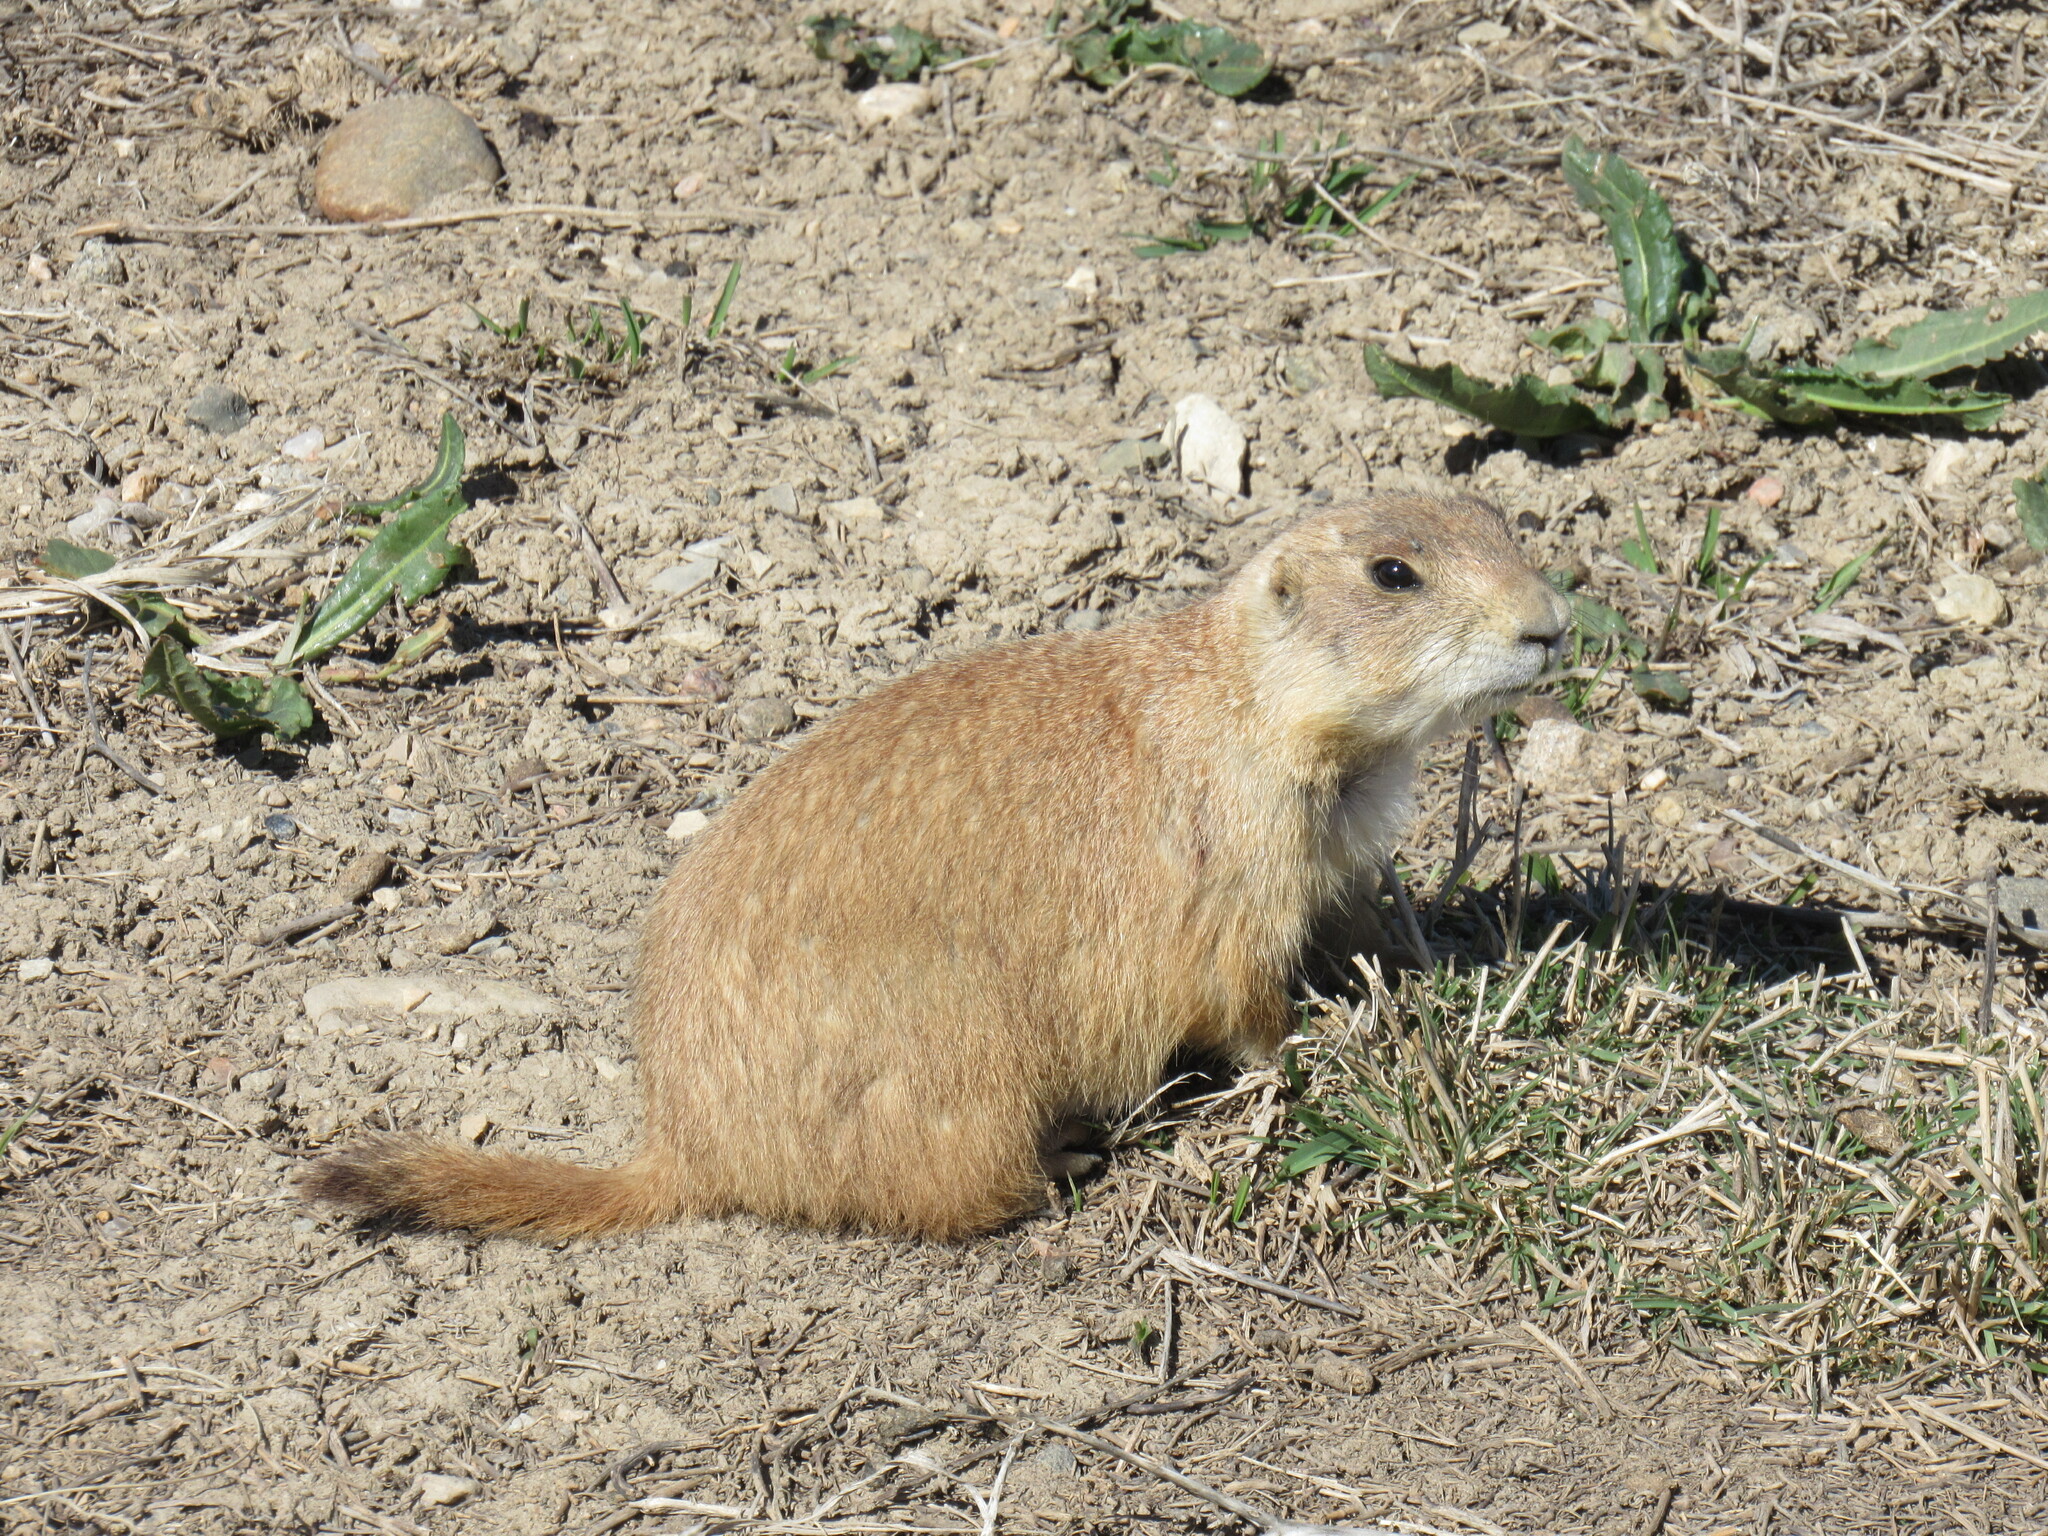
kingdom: Animalia
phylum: Chordata
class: Mammalia
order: Rodentia
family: Sciuridae
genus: Cynomys
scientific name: Cynomys ludovicianus
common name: Black-tailed prairie dog
